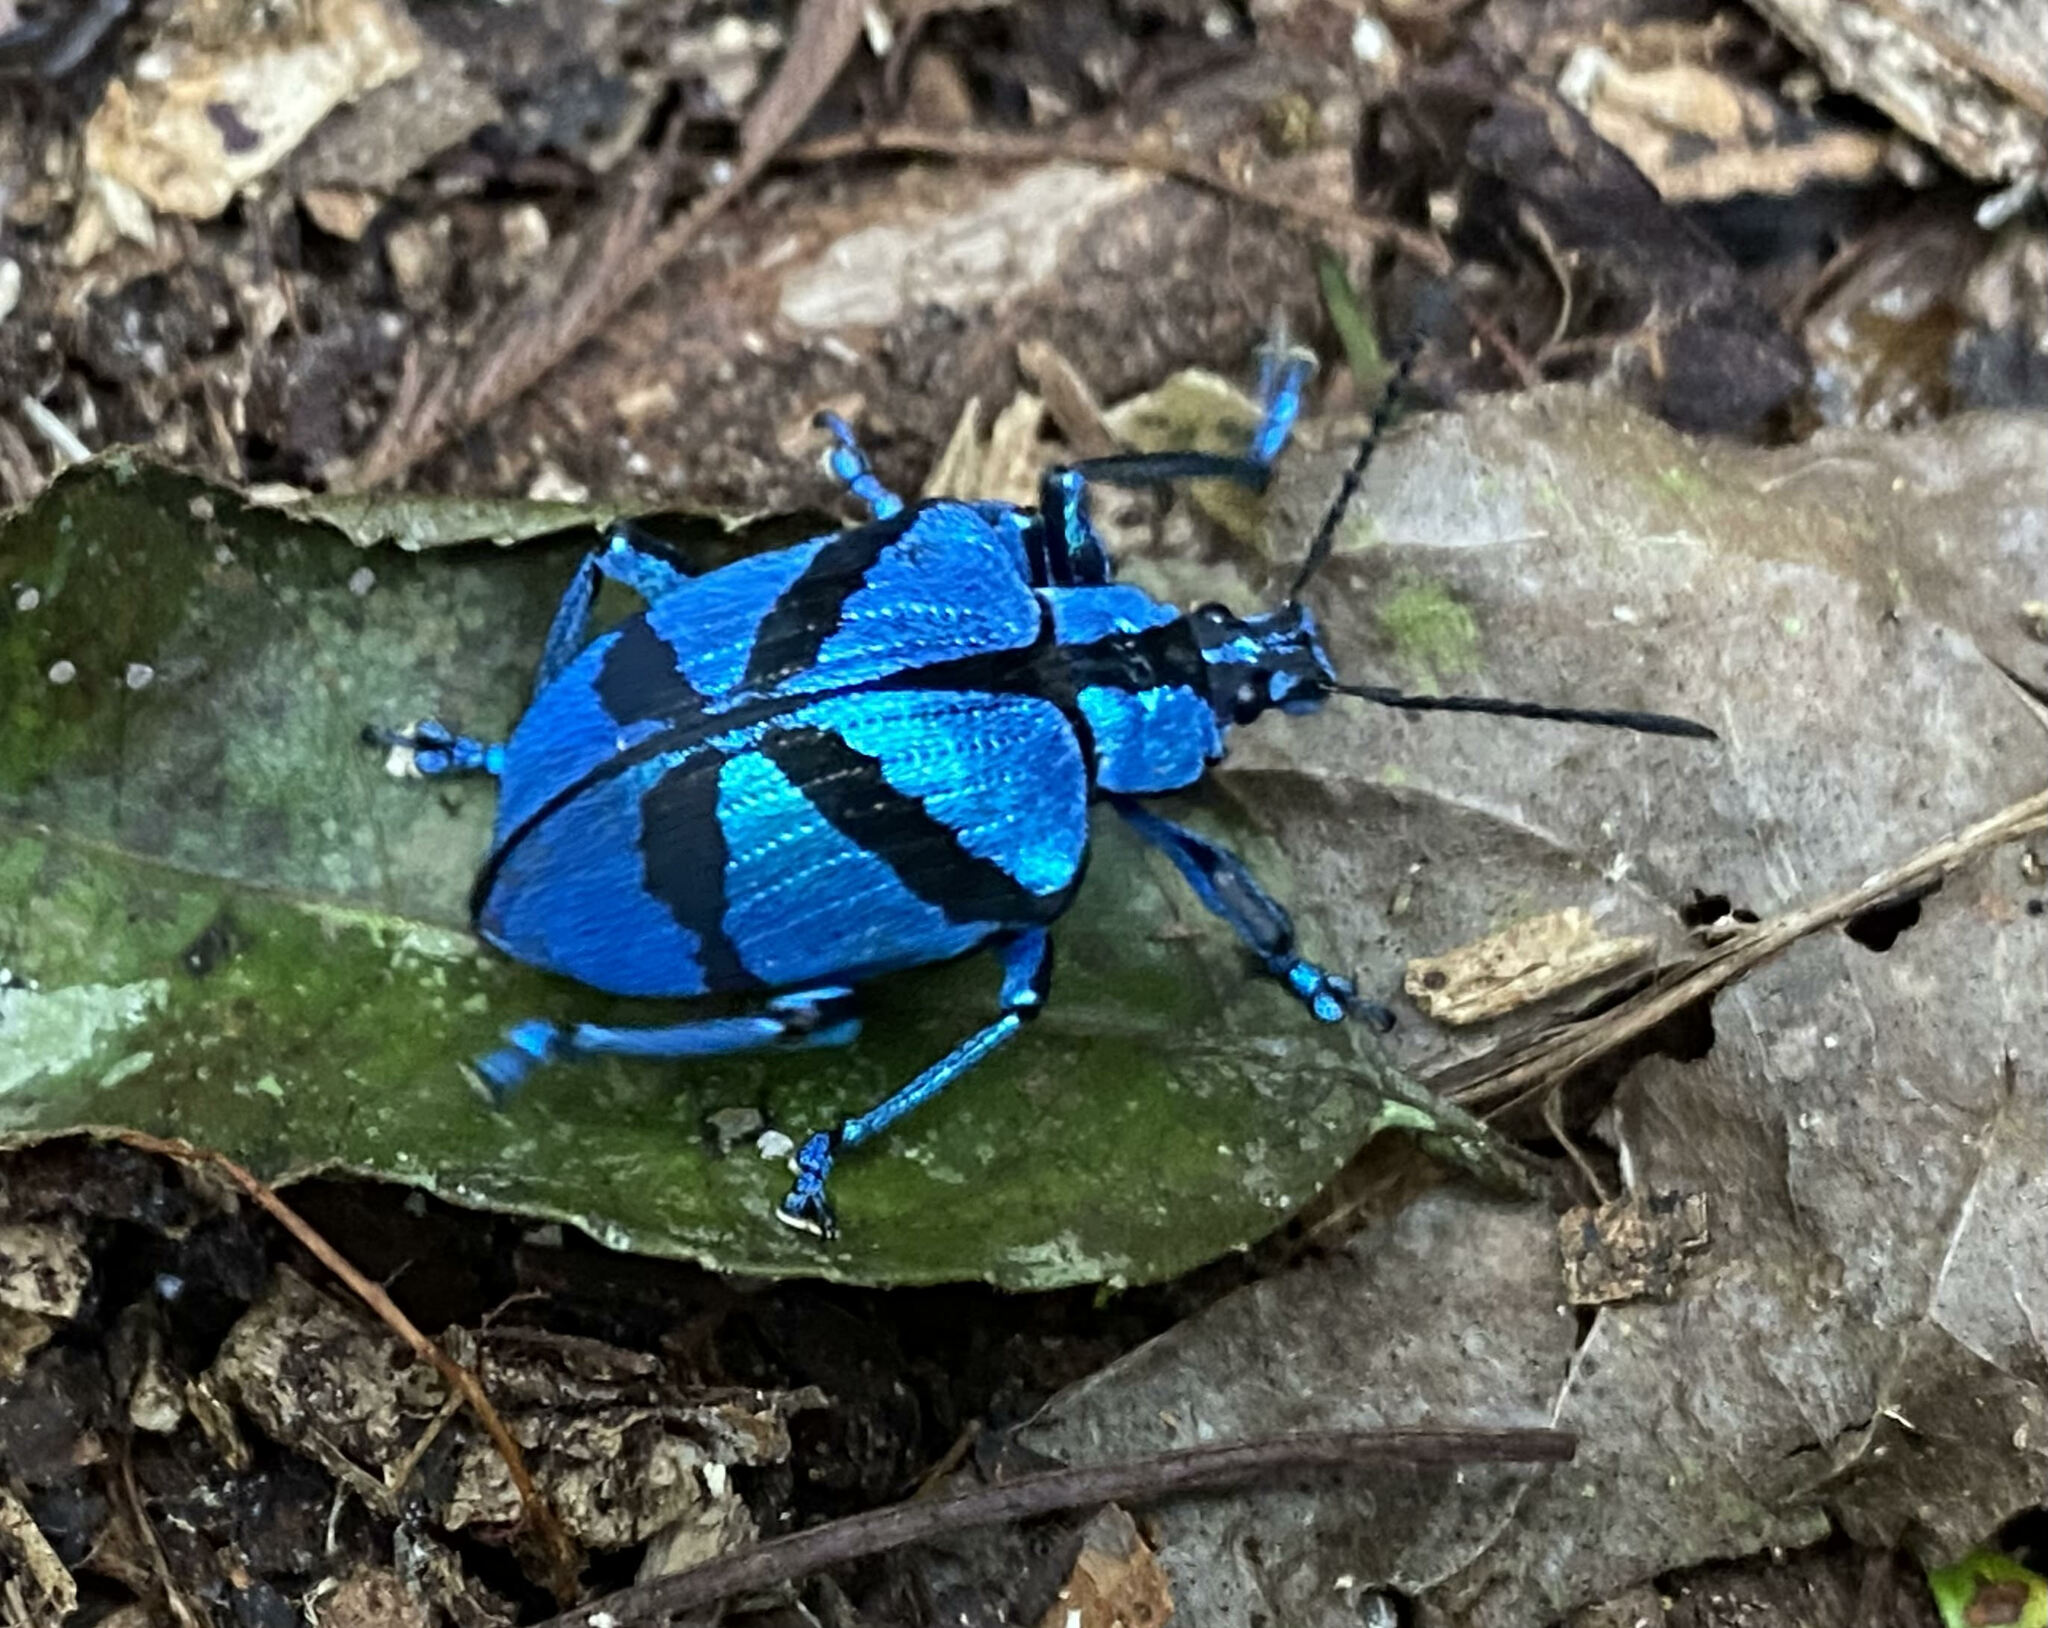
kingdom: Animalia
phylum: Arthropoda
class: Insecta
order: Coleoptera
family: Curculionidae
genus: Polyteles
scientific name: Polyteles inka
